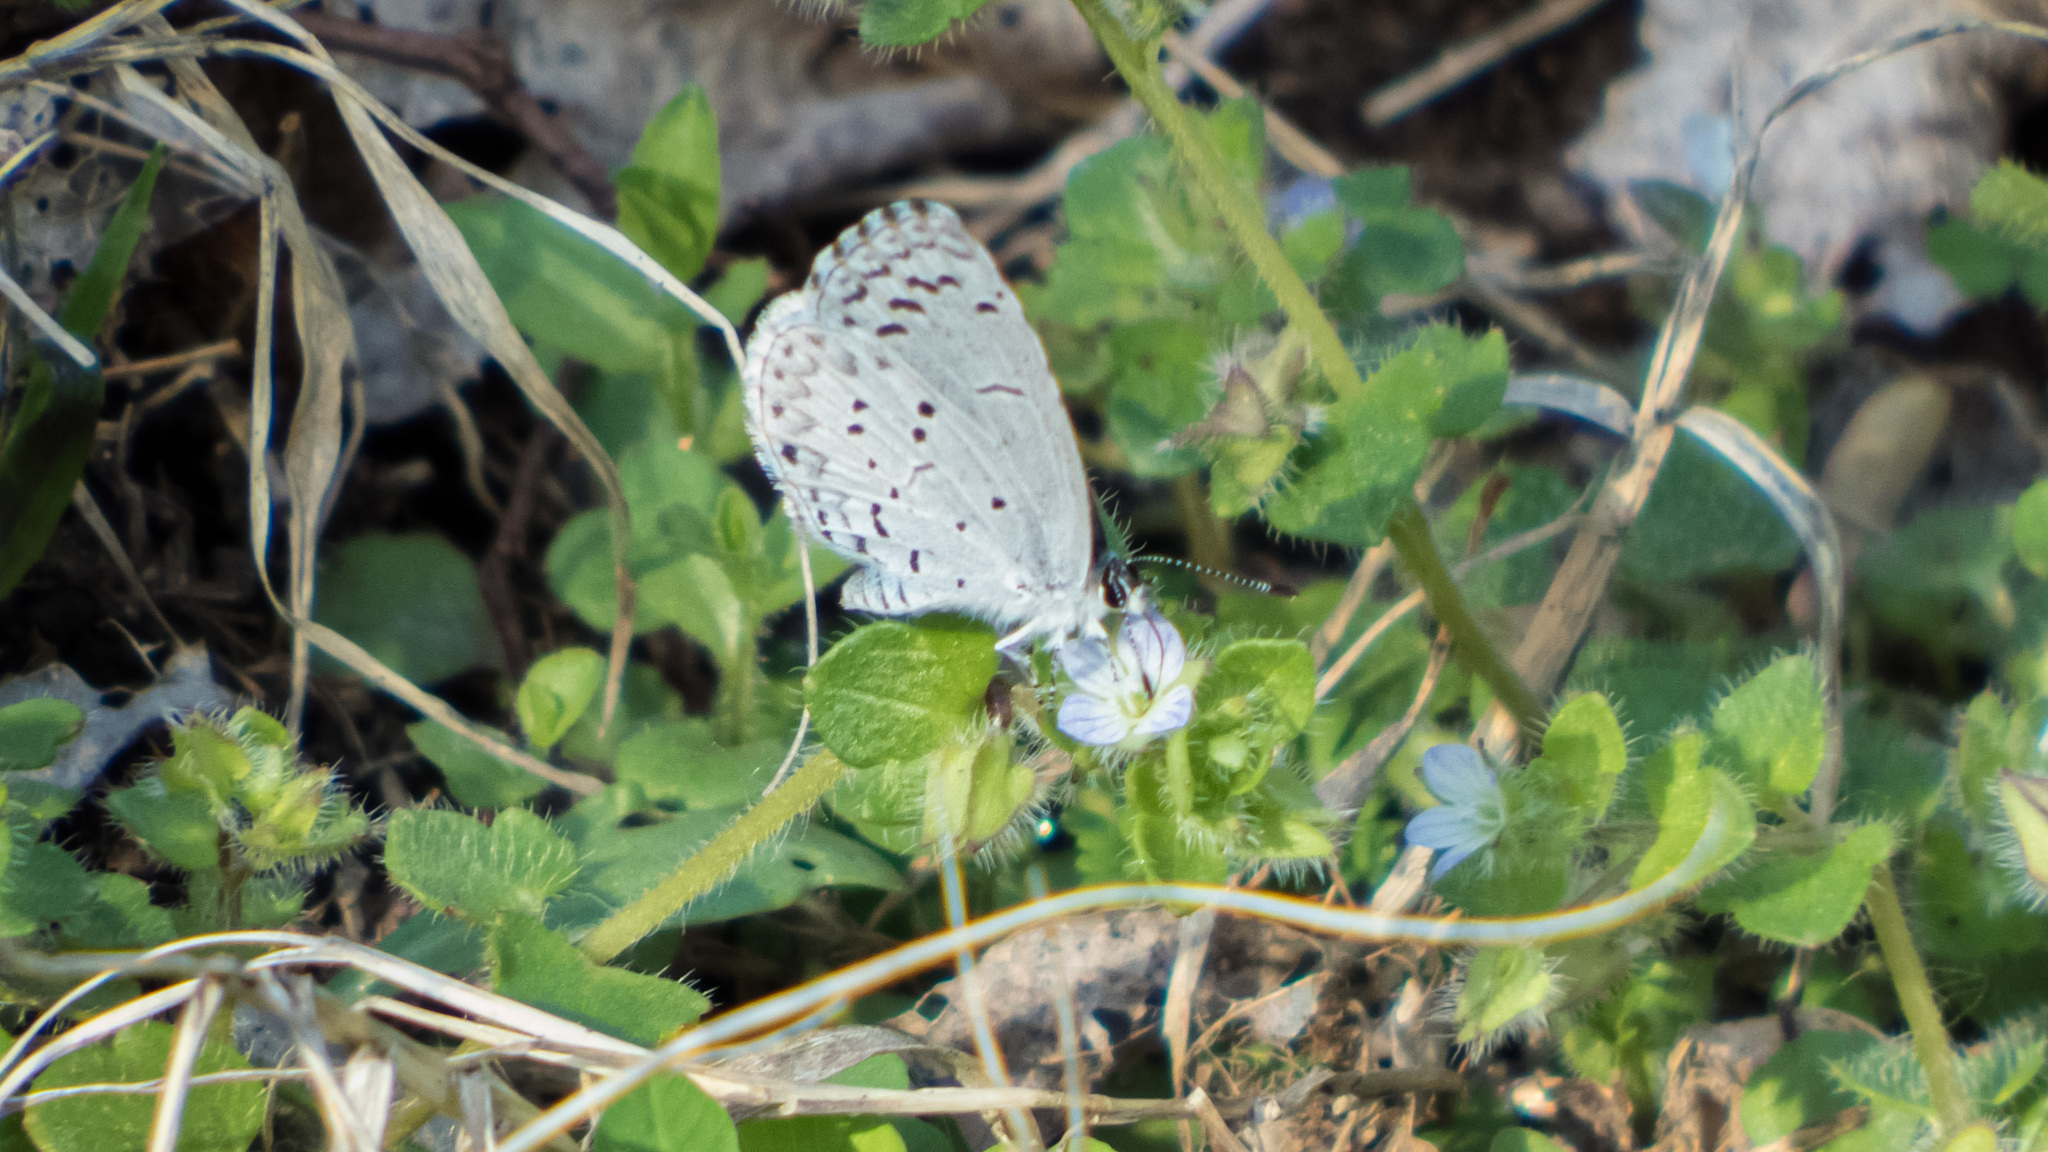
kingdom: Animalia
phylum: Arthropoda
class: Insecta
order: Lepidoptera
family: Lycaenidae
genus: Cyaniris
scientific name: Cyaniris neglecta
